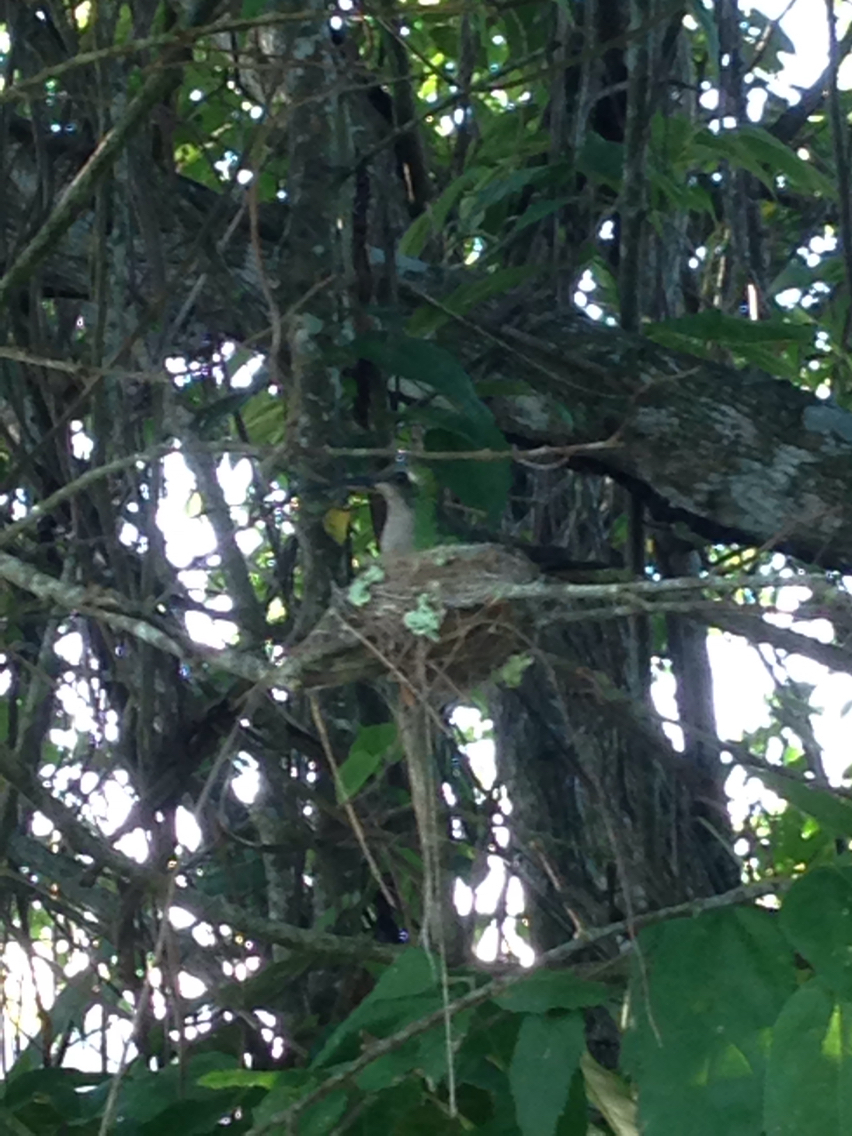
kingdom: Animalia
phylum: Chordata
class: Aves
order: Apodiformes
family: Trochilidae
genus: Riccordia
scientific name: Riccordia ricordii
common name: Cuban emerald
